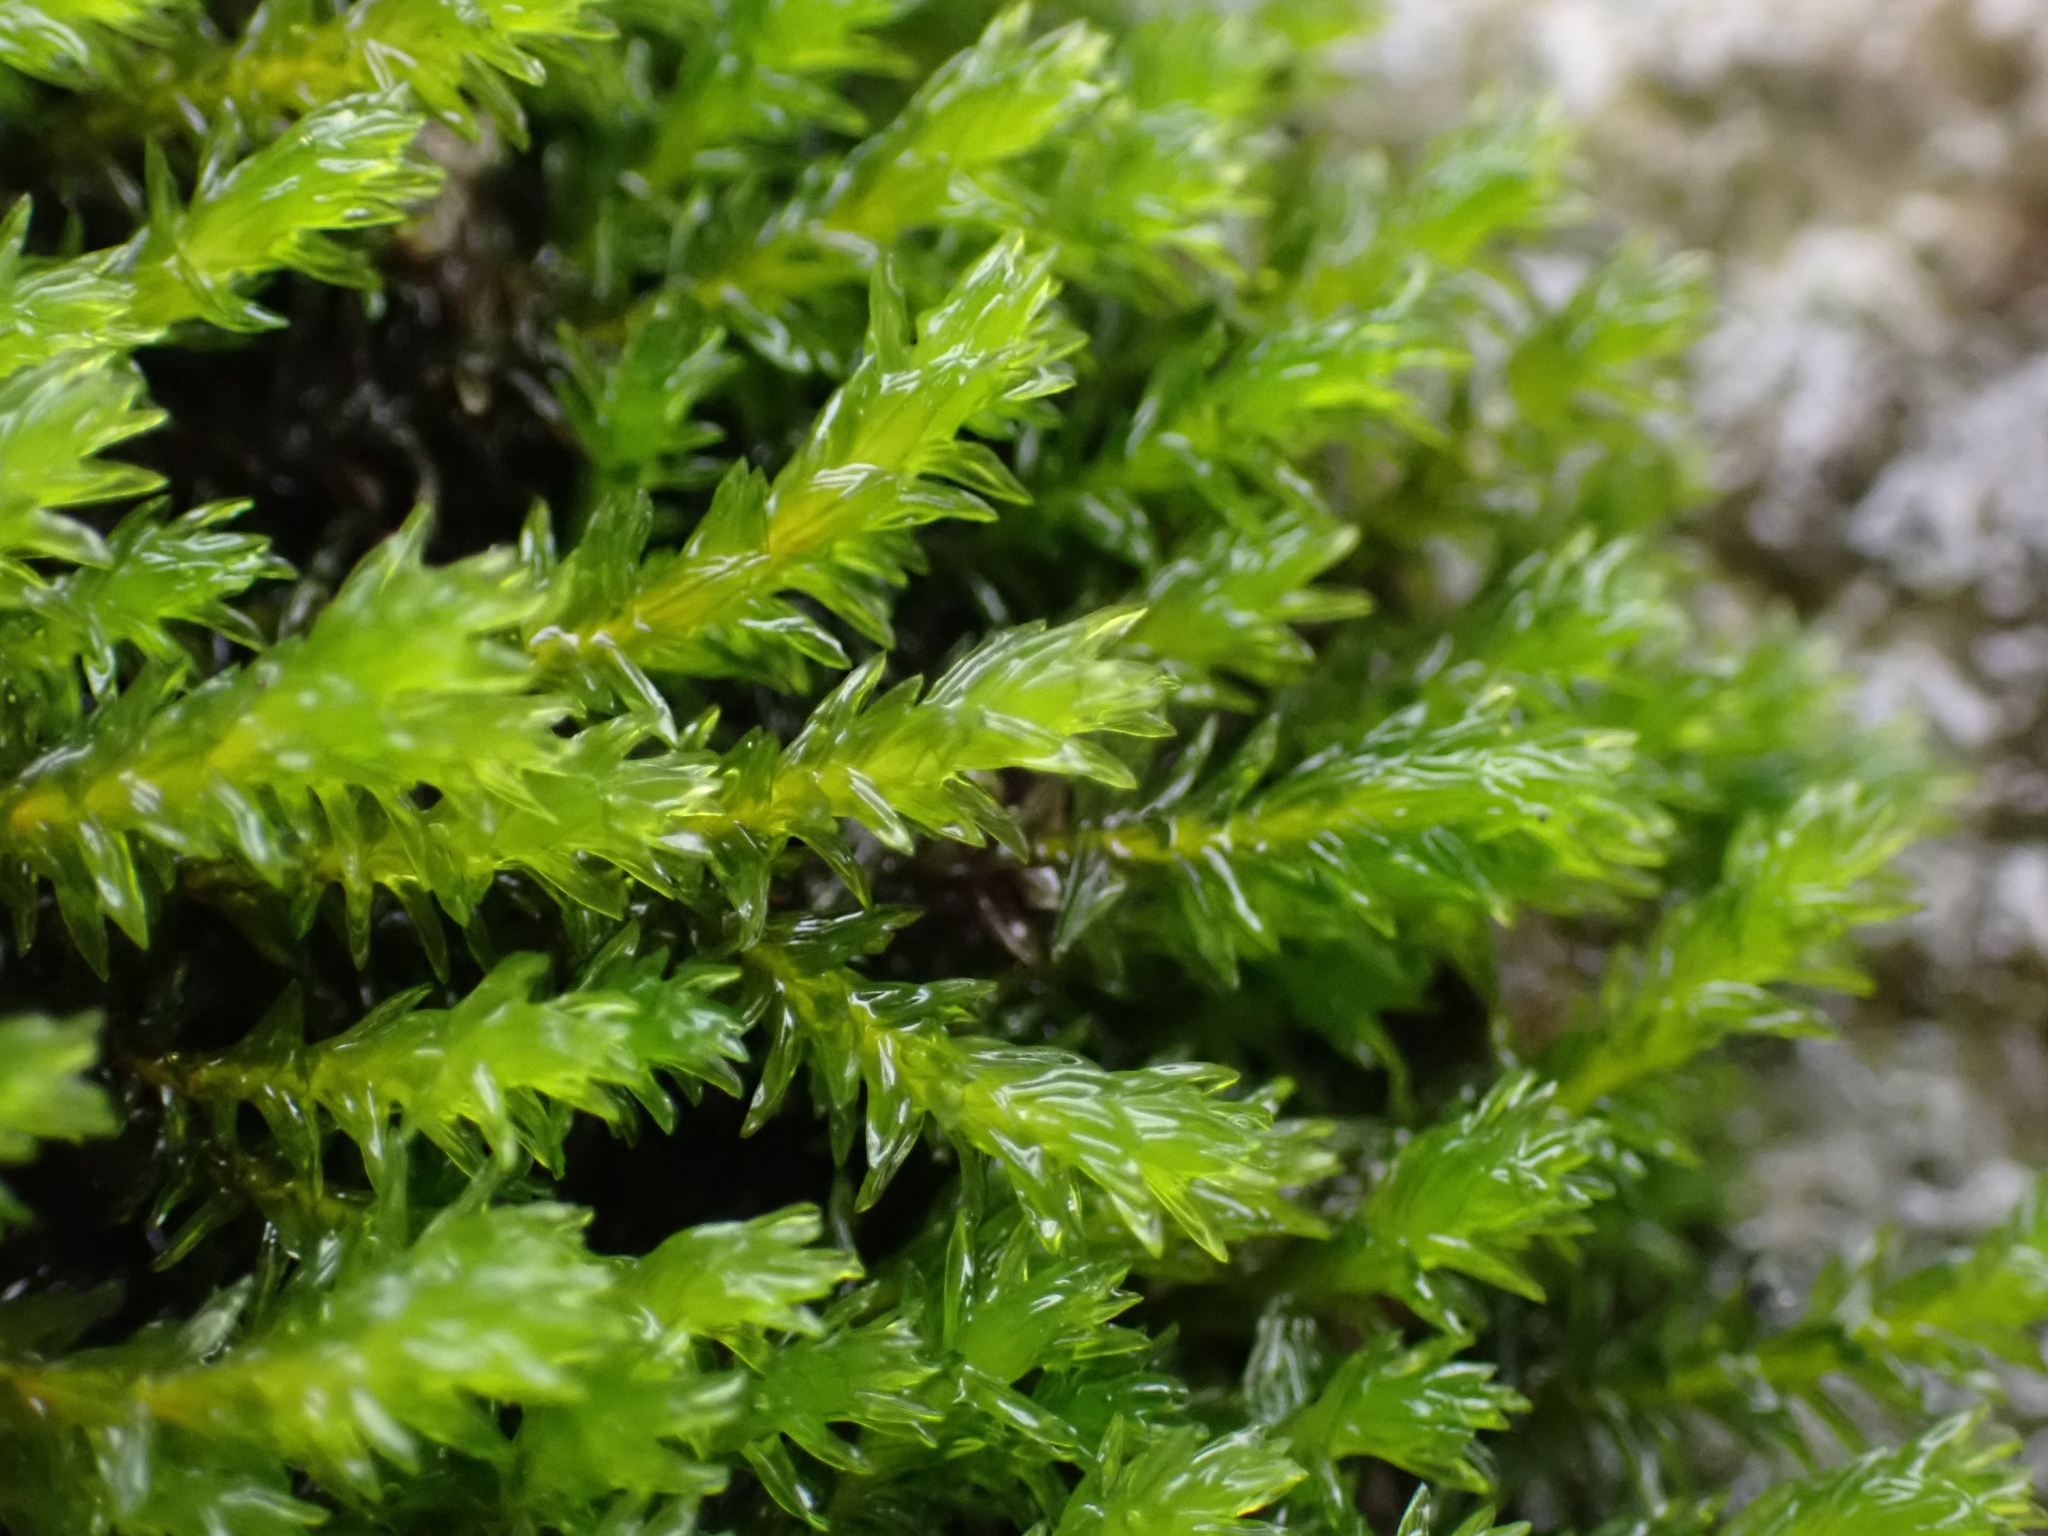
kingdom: Plantae
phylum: Bryophyta
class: Bryopsida
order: Grimmiales
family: Grimmiaceae
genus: Codriophorus
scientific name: Codriophorus acicularis
